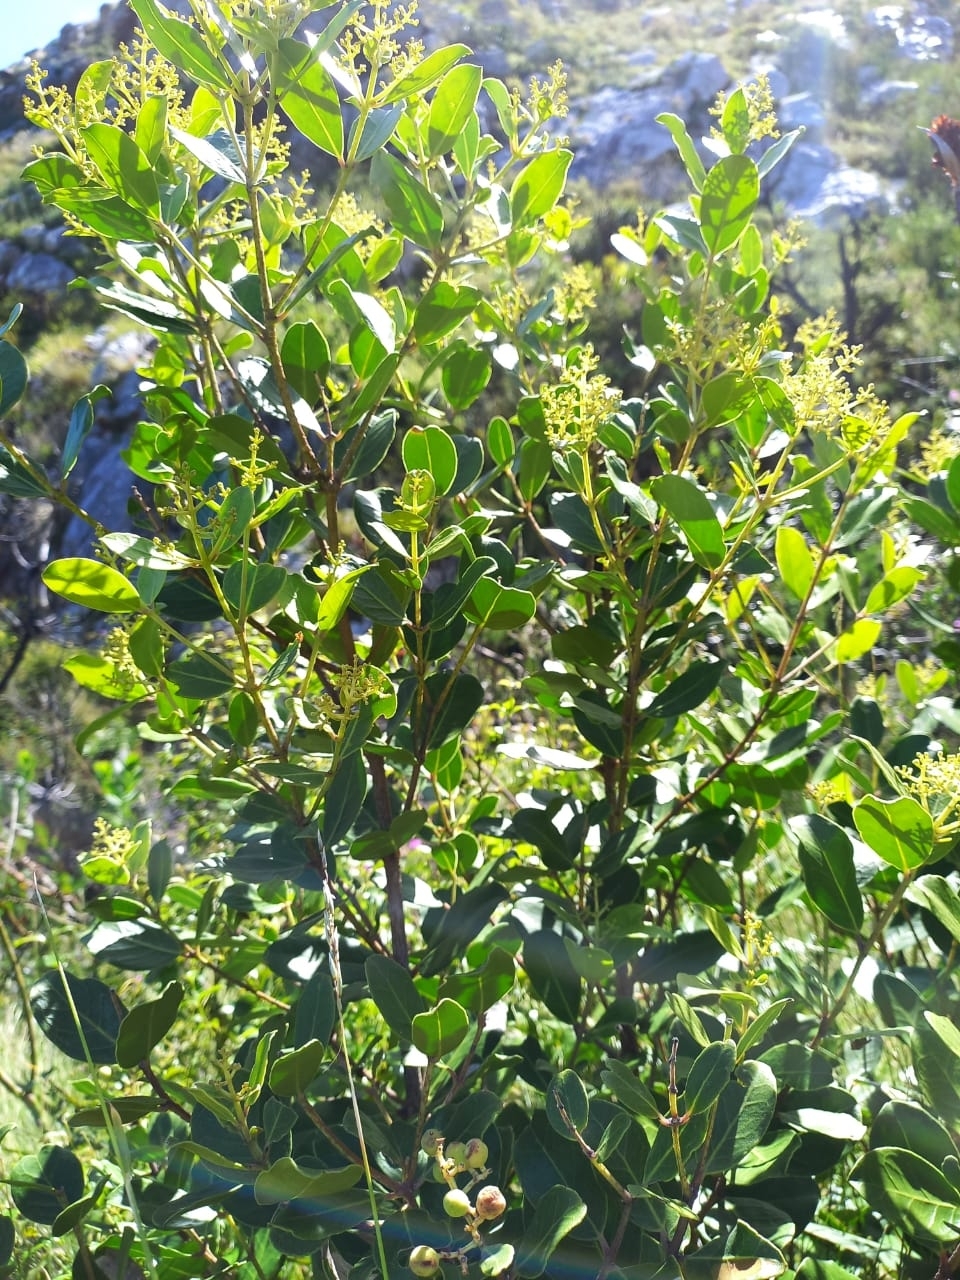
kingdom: Plantae
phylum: Tracheophyta
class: Magnoliopsida
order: Lamiales
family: Oleaceae
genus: Olea
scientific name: Olea capensis
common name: Black ironwood
